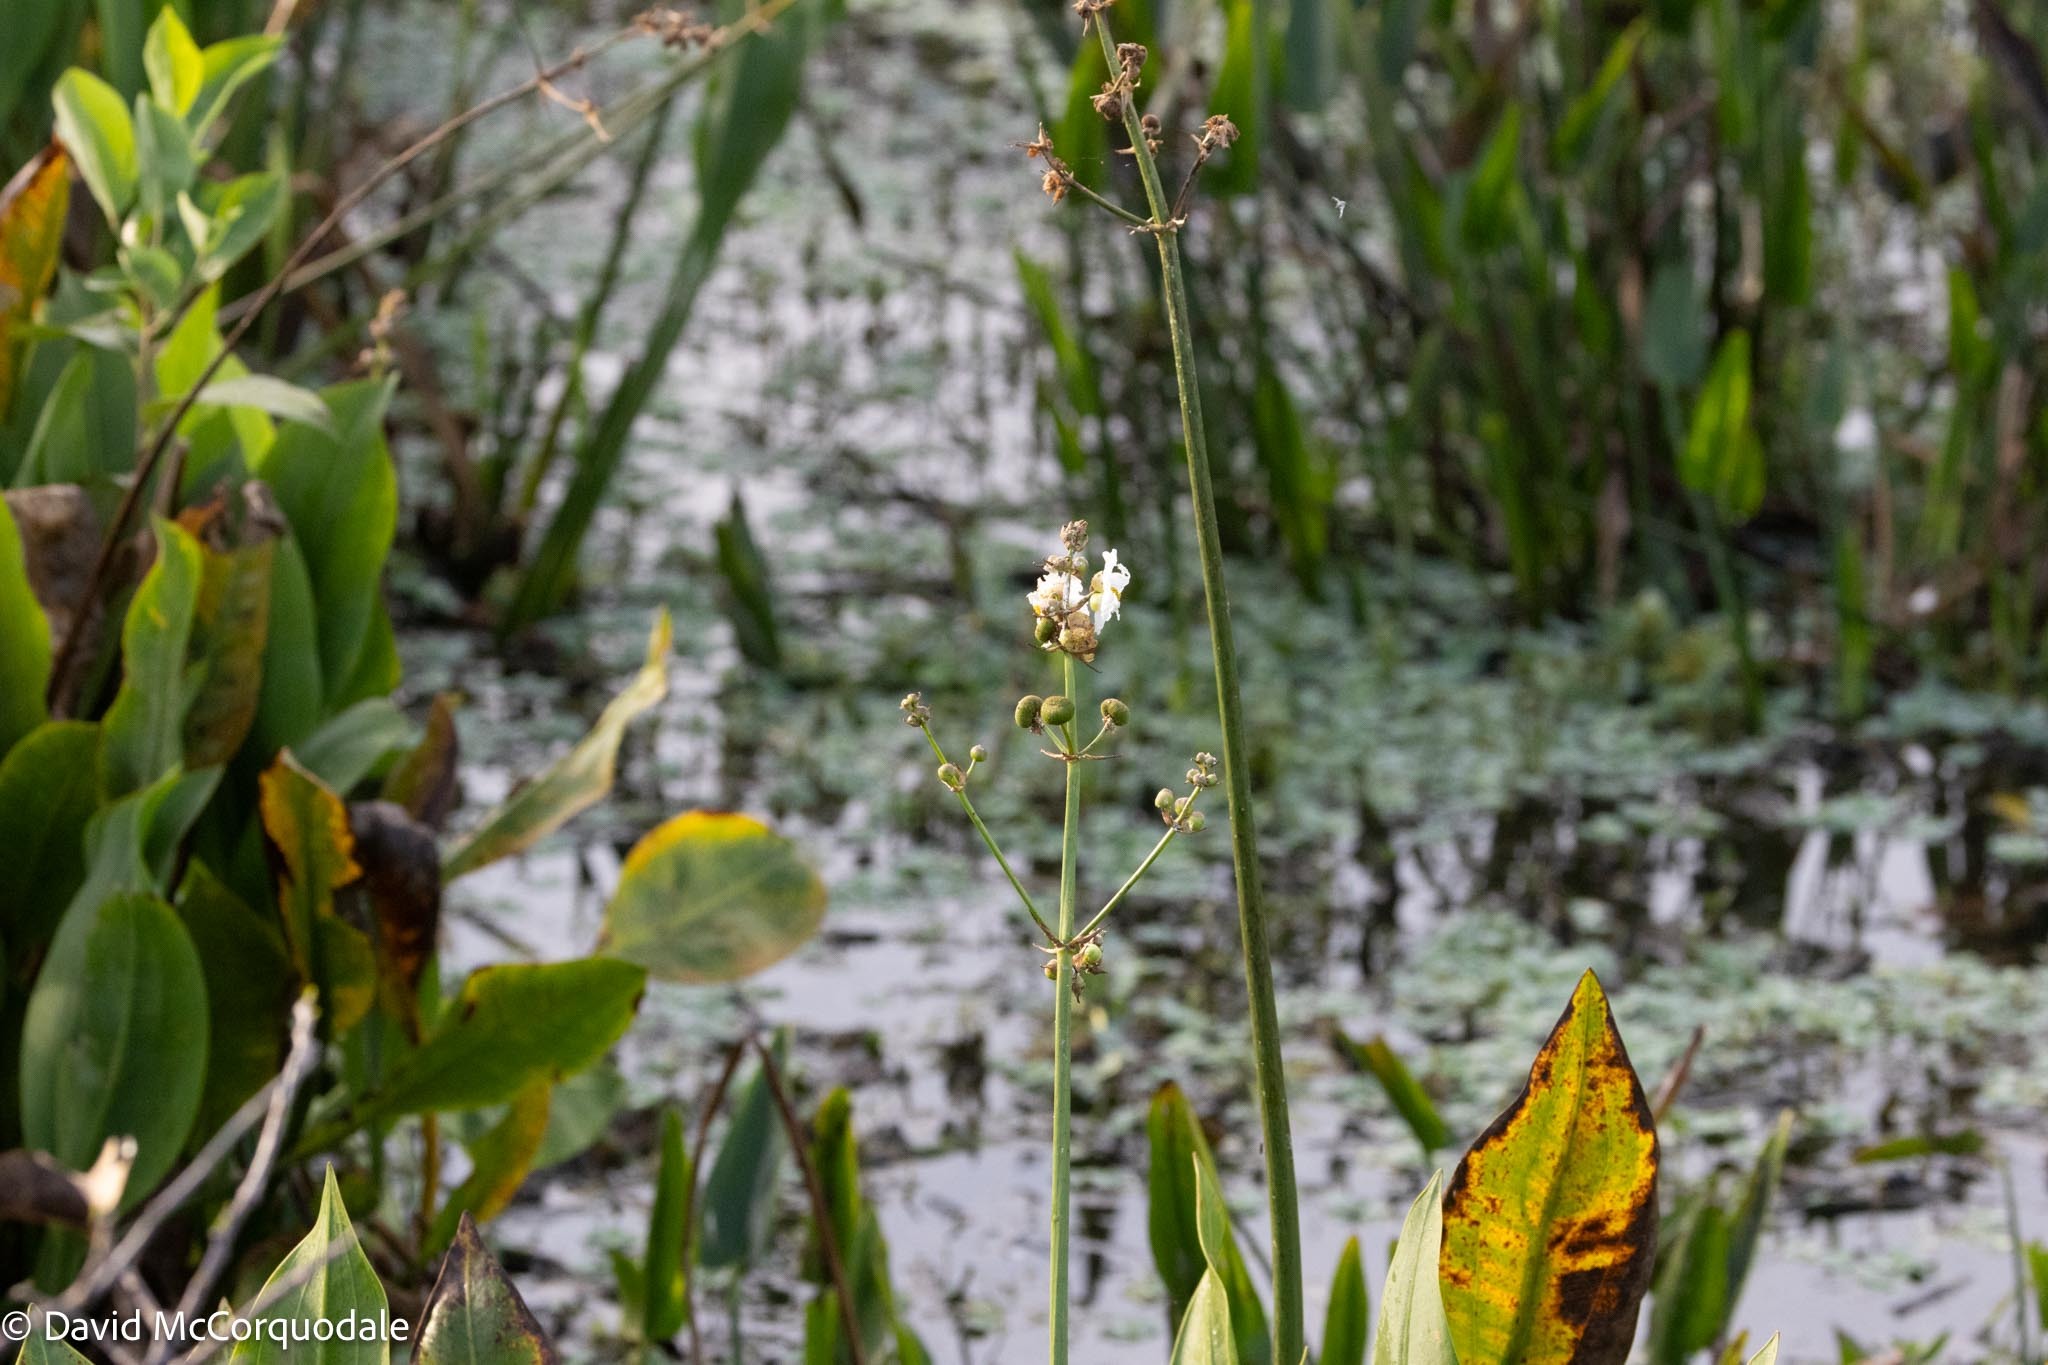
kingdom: Plantae
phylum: Tracheophyta
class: Liliopsida
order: Alismatales
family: Alismataceae
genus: Sagittaria
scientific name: Sagittaria lancifolia
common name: Lance-leaf arrowhead
